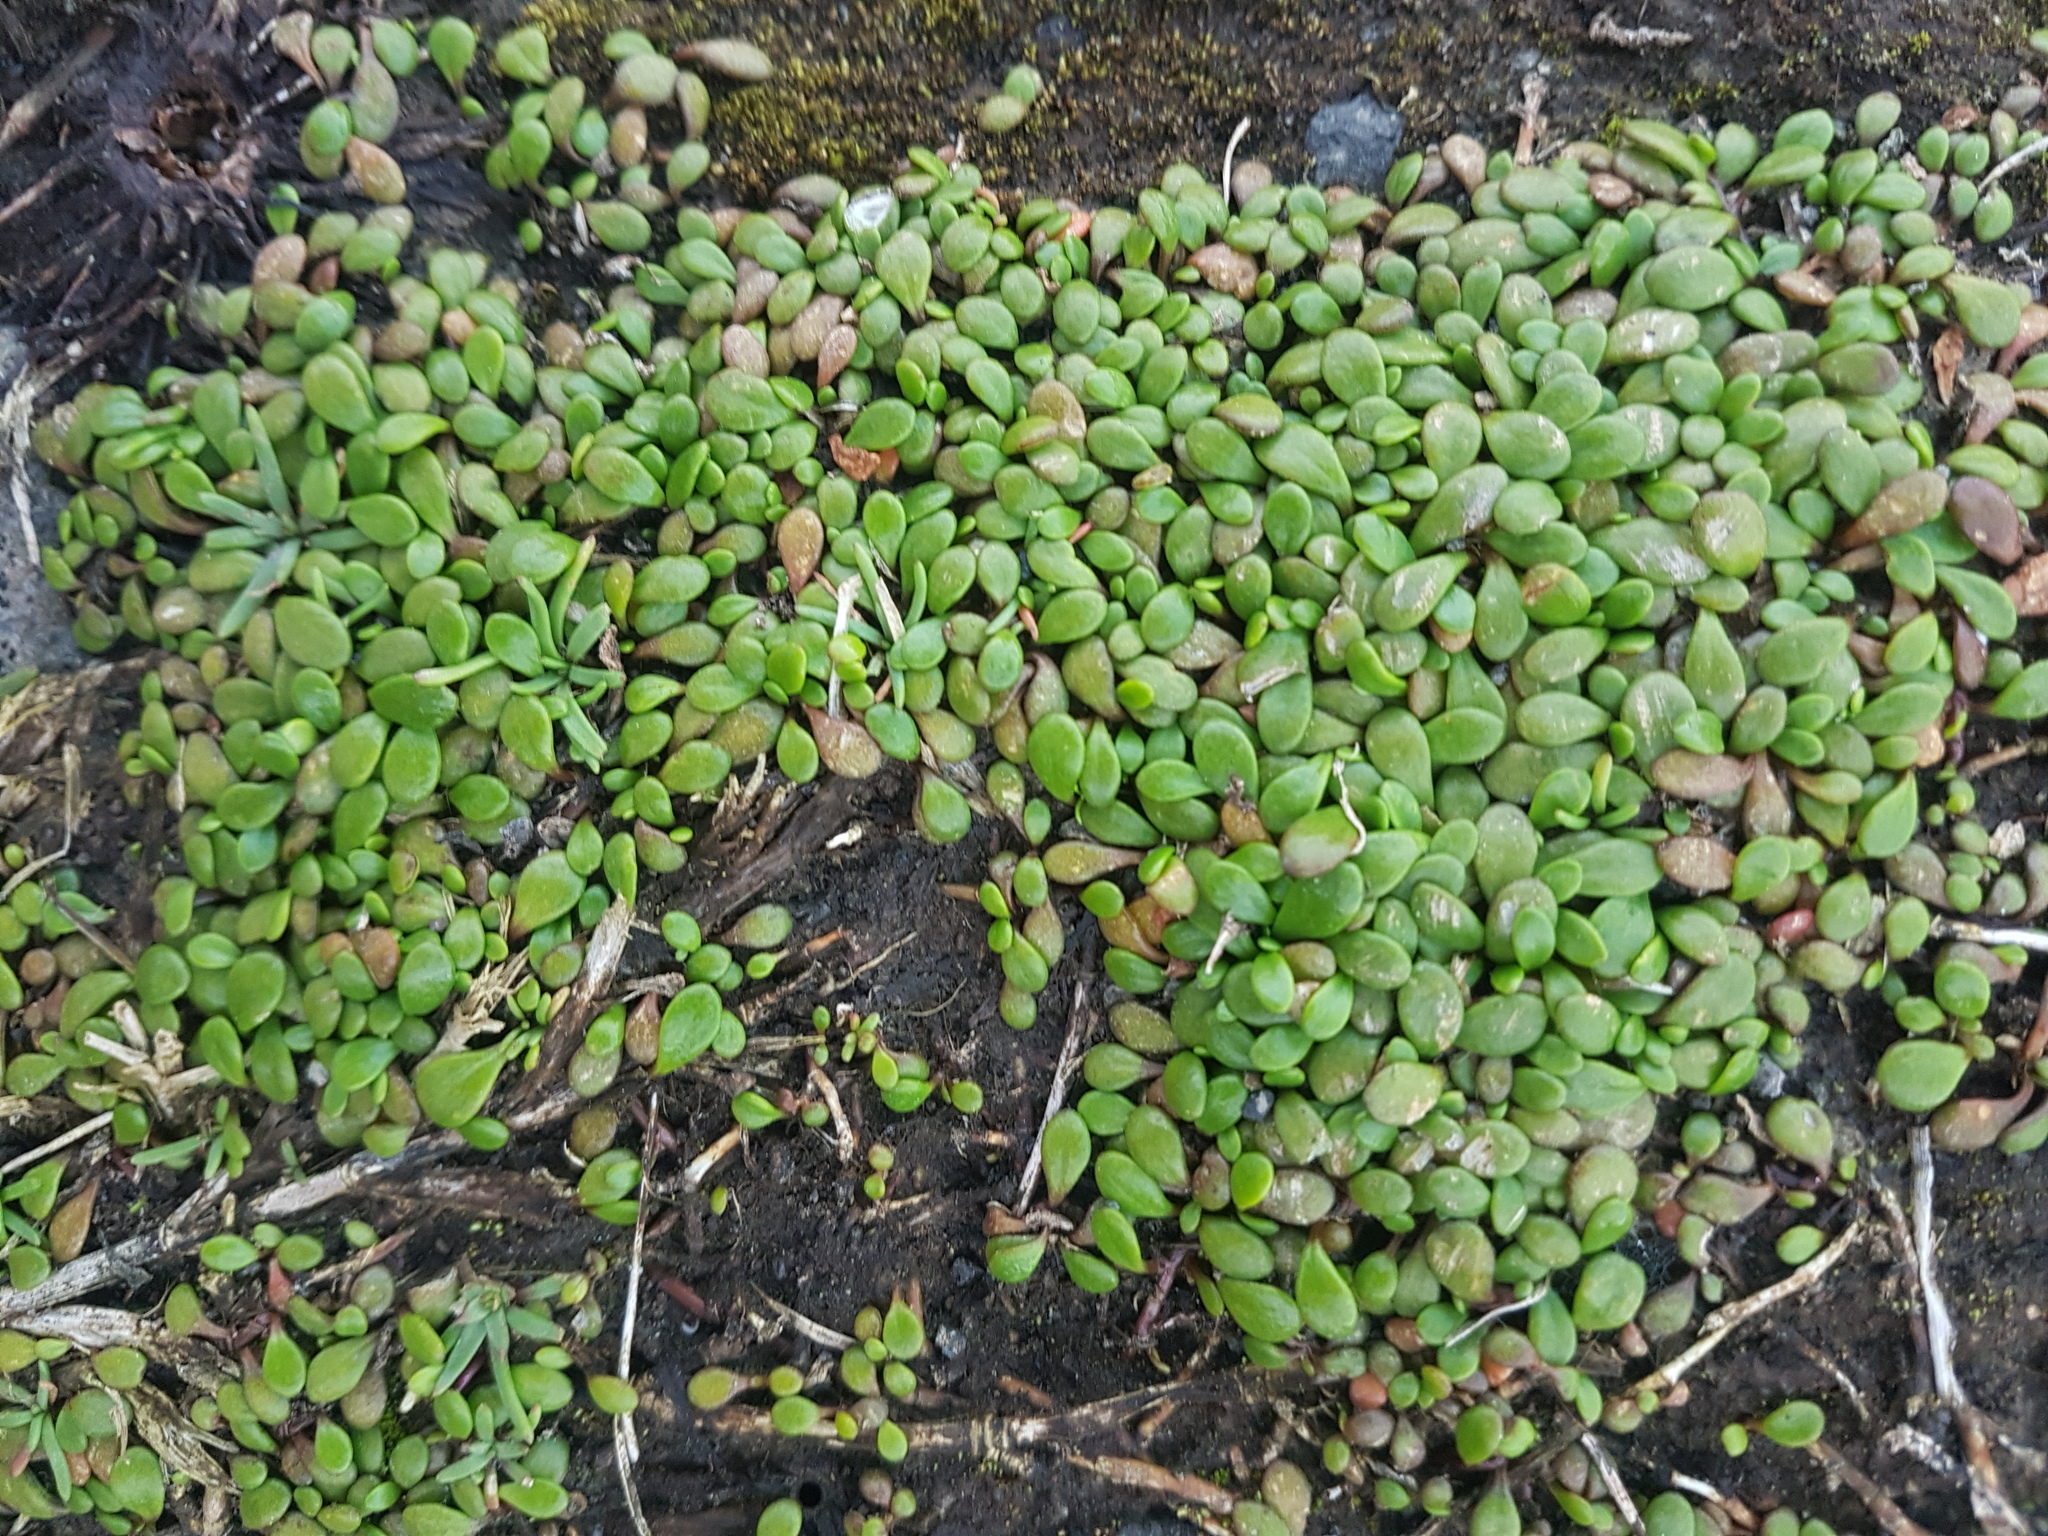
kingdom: Plantae
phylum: Tracheophyta
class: Magnoliopsida
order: Asterales
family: Goodeniaceae
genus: Goodenia
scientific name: Goodenia radicans
